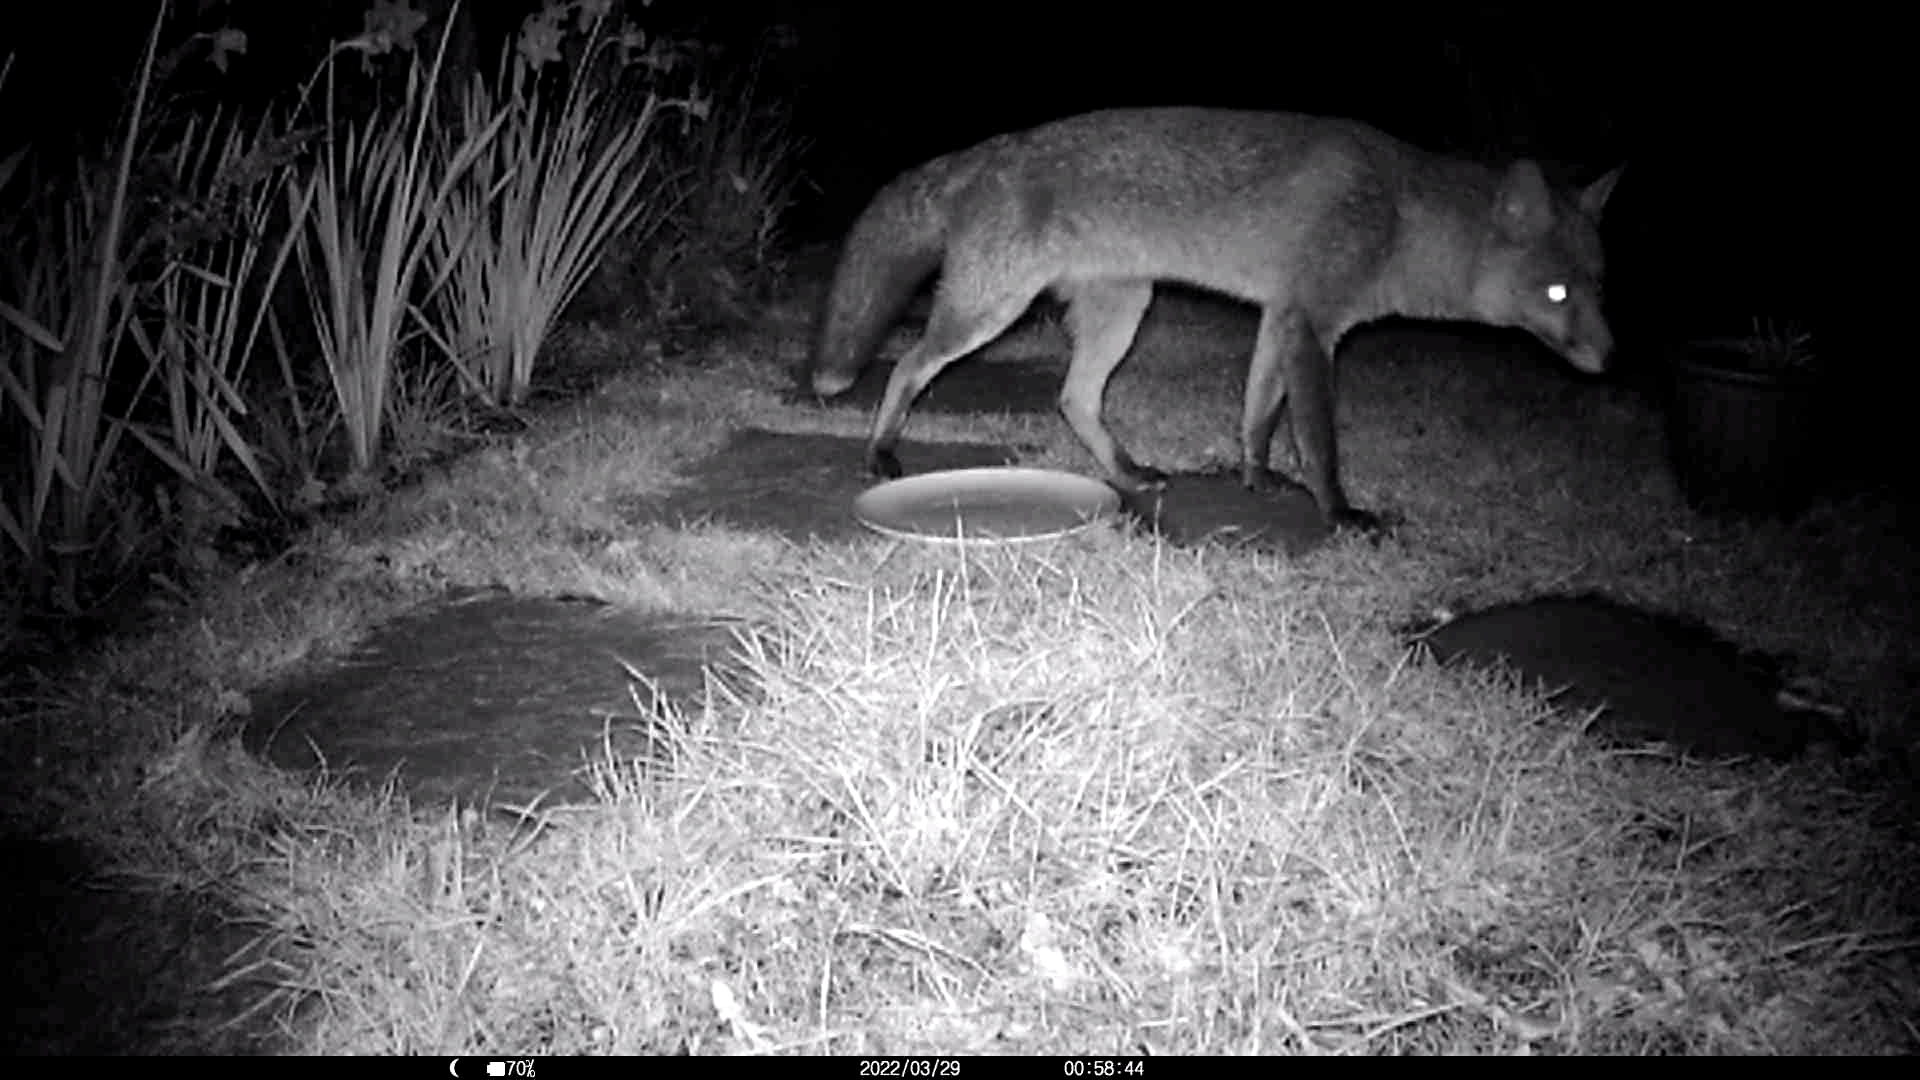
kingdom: Animalia
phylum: Chordata
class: Mammalia
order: Carnivora
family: Canidae
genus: Vulpes
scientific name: Vulpes vulpes
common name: Red fox
